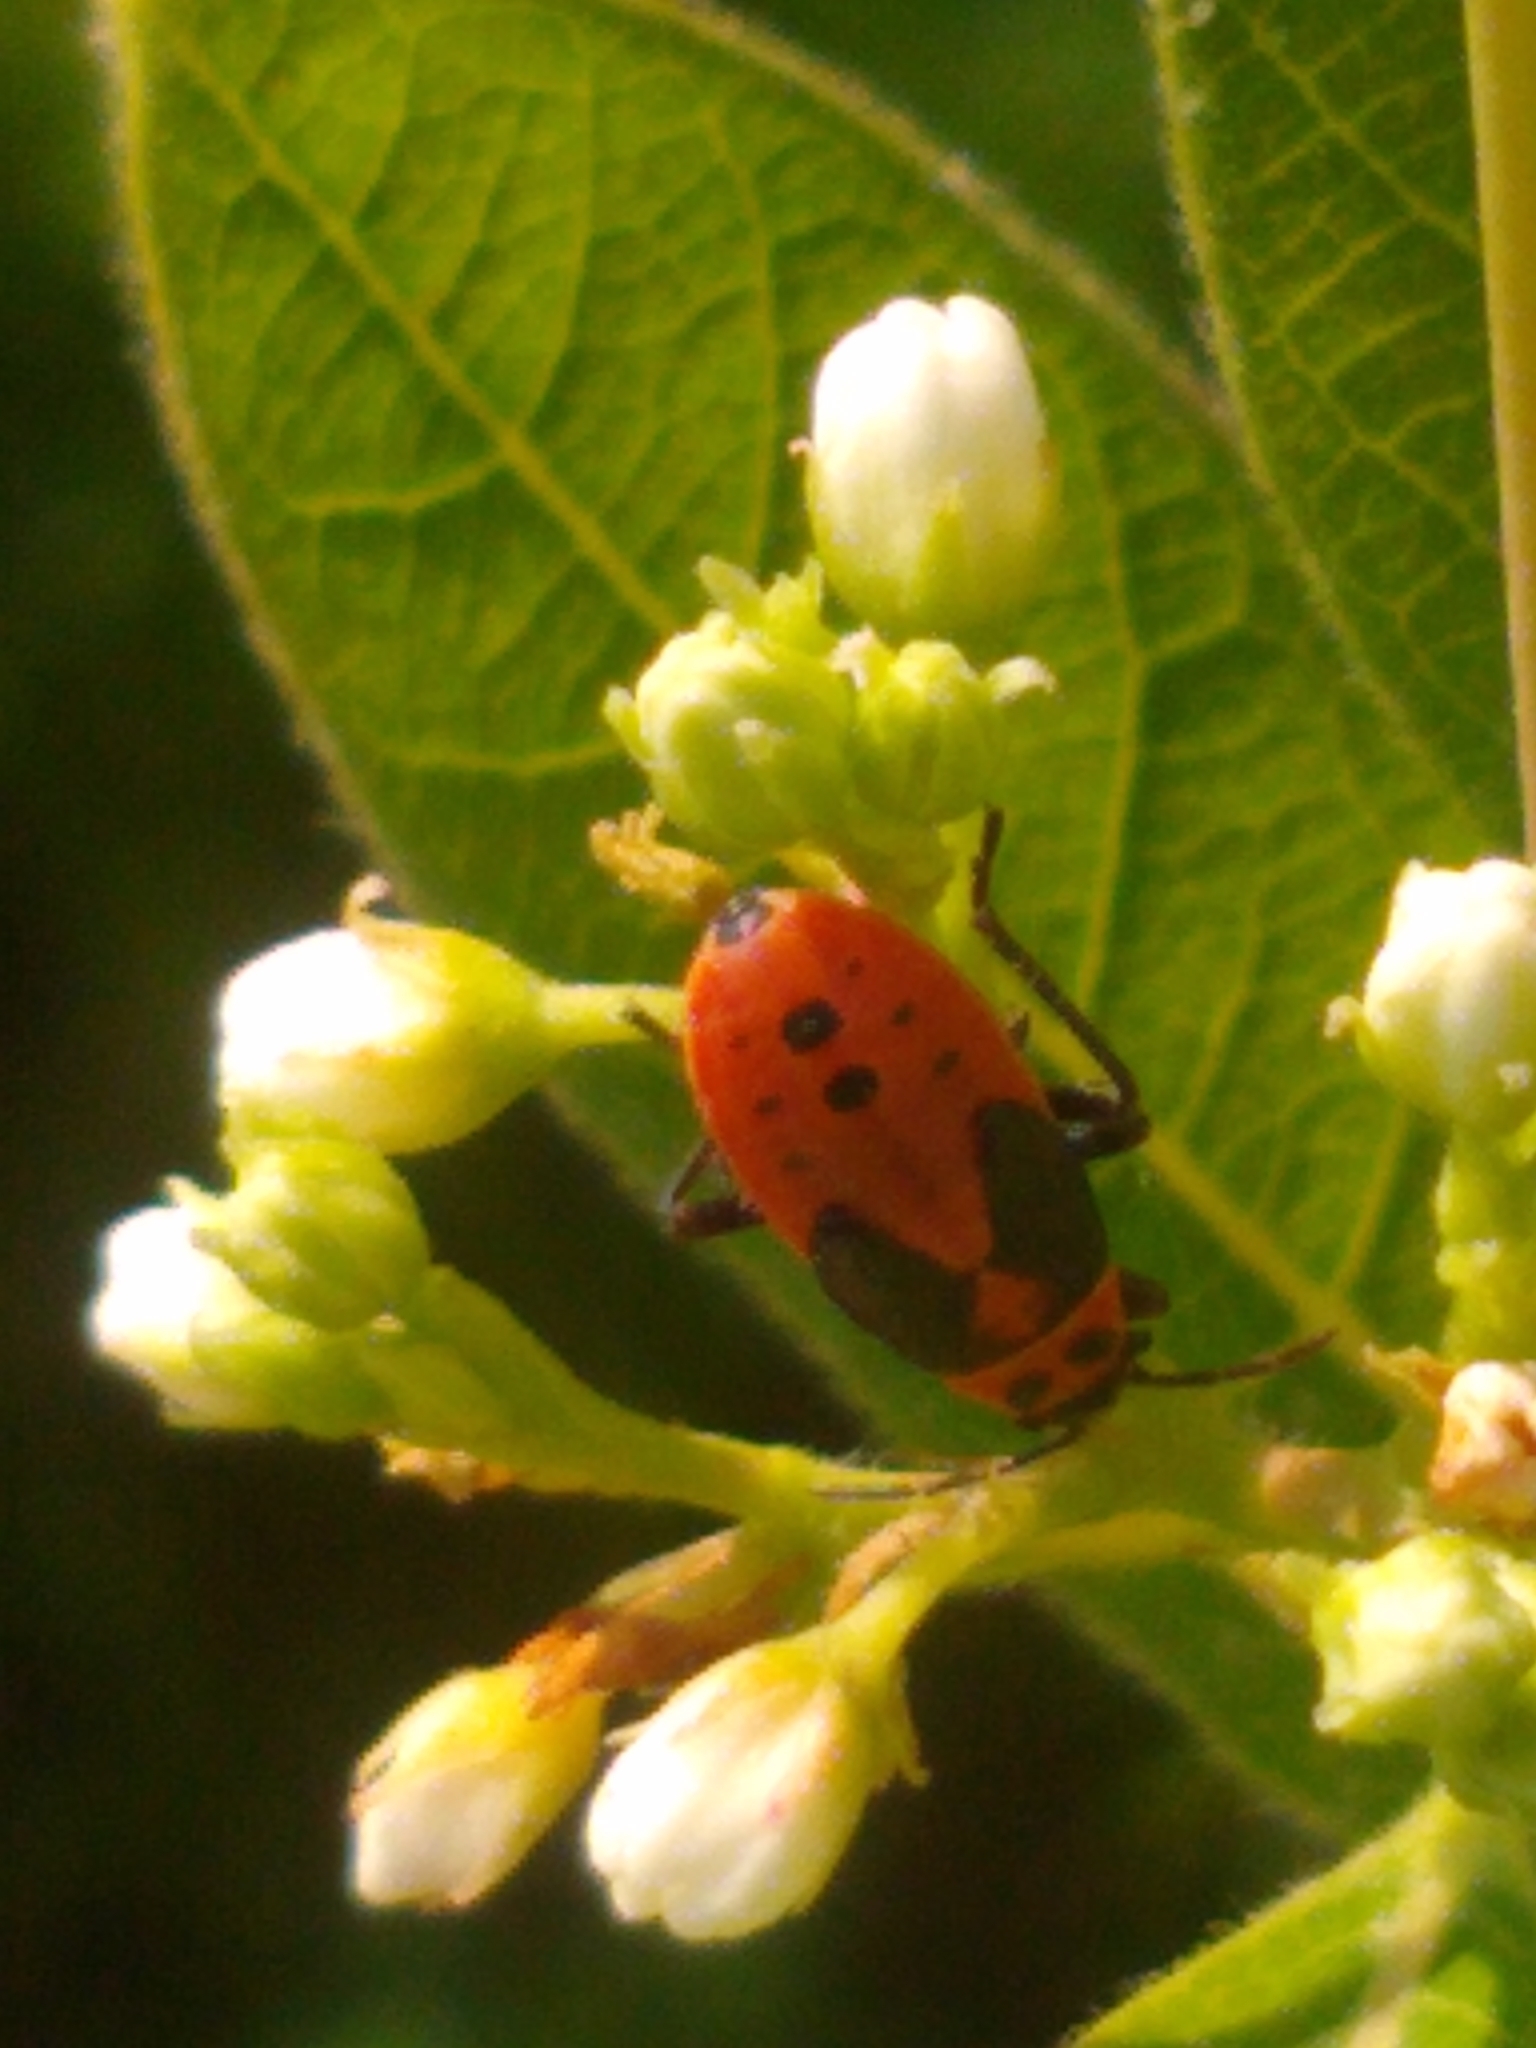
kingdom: Animalia
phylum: Arthropoda
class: Insecta
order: Hemiptera
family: Lygaeidae
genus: Lygaeus
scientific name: Lygaeus kalmii
